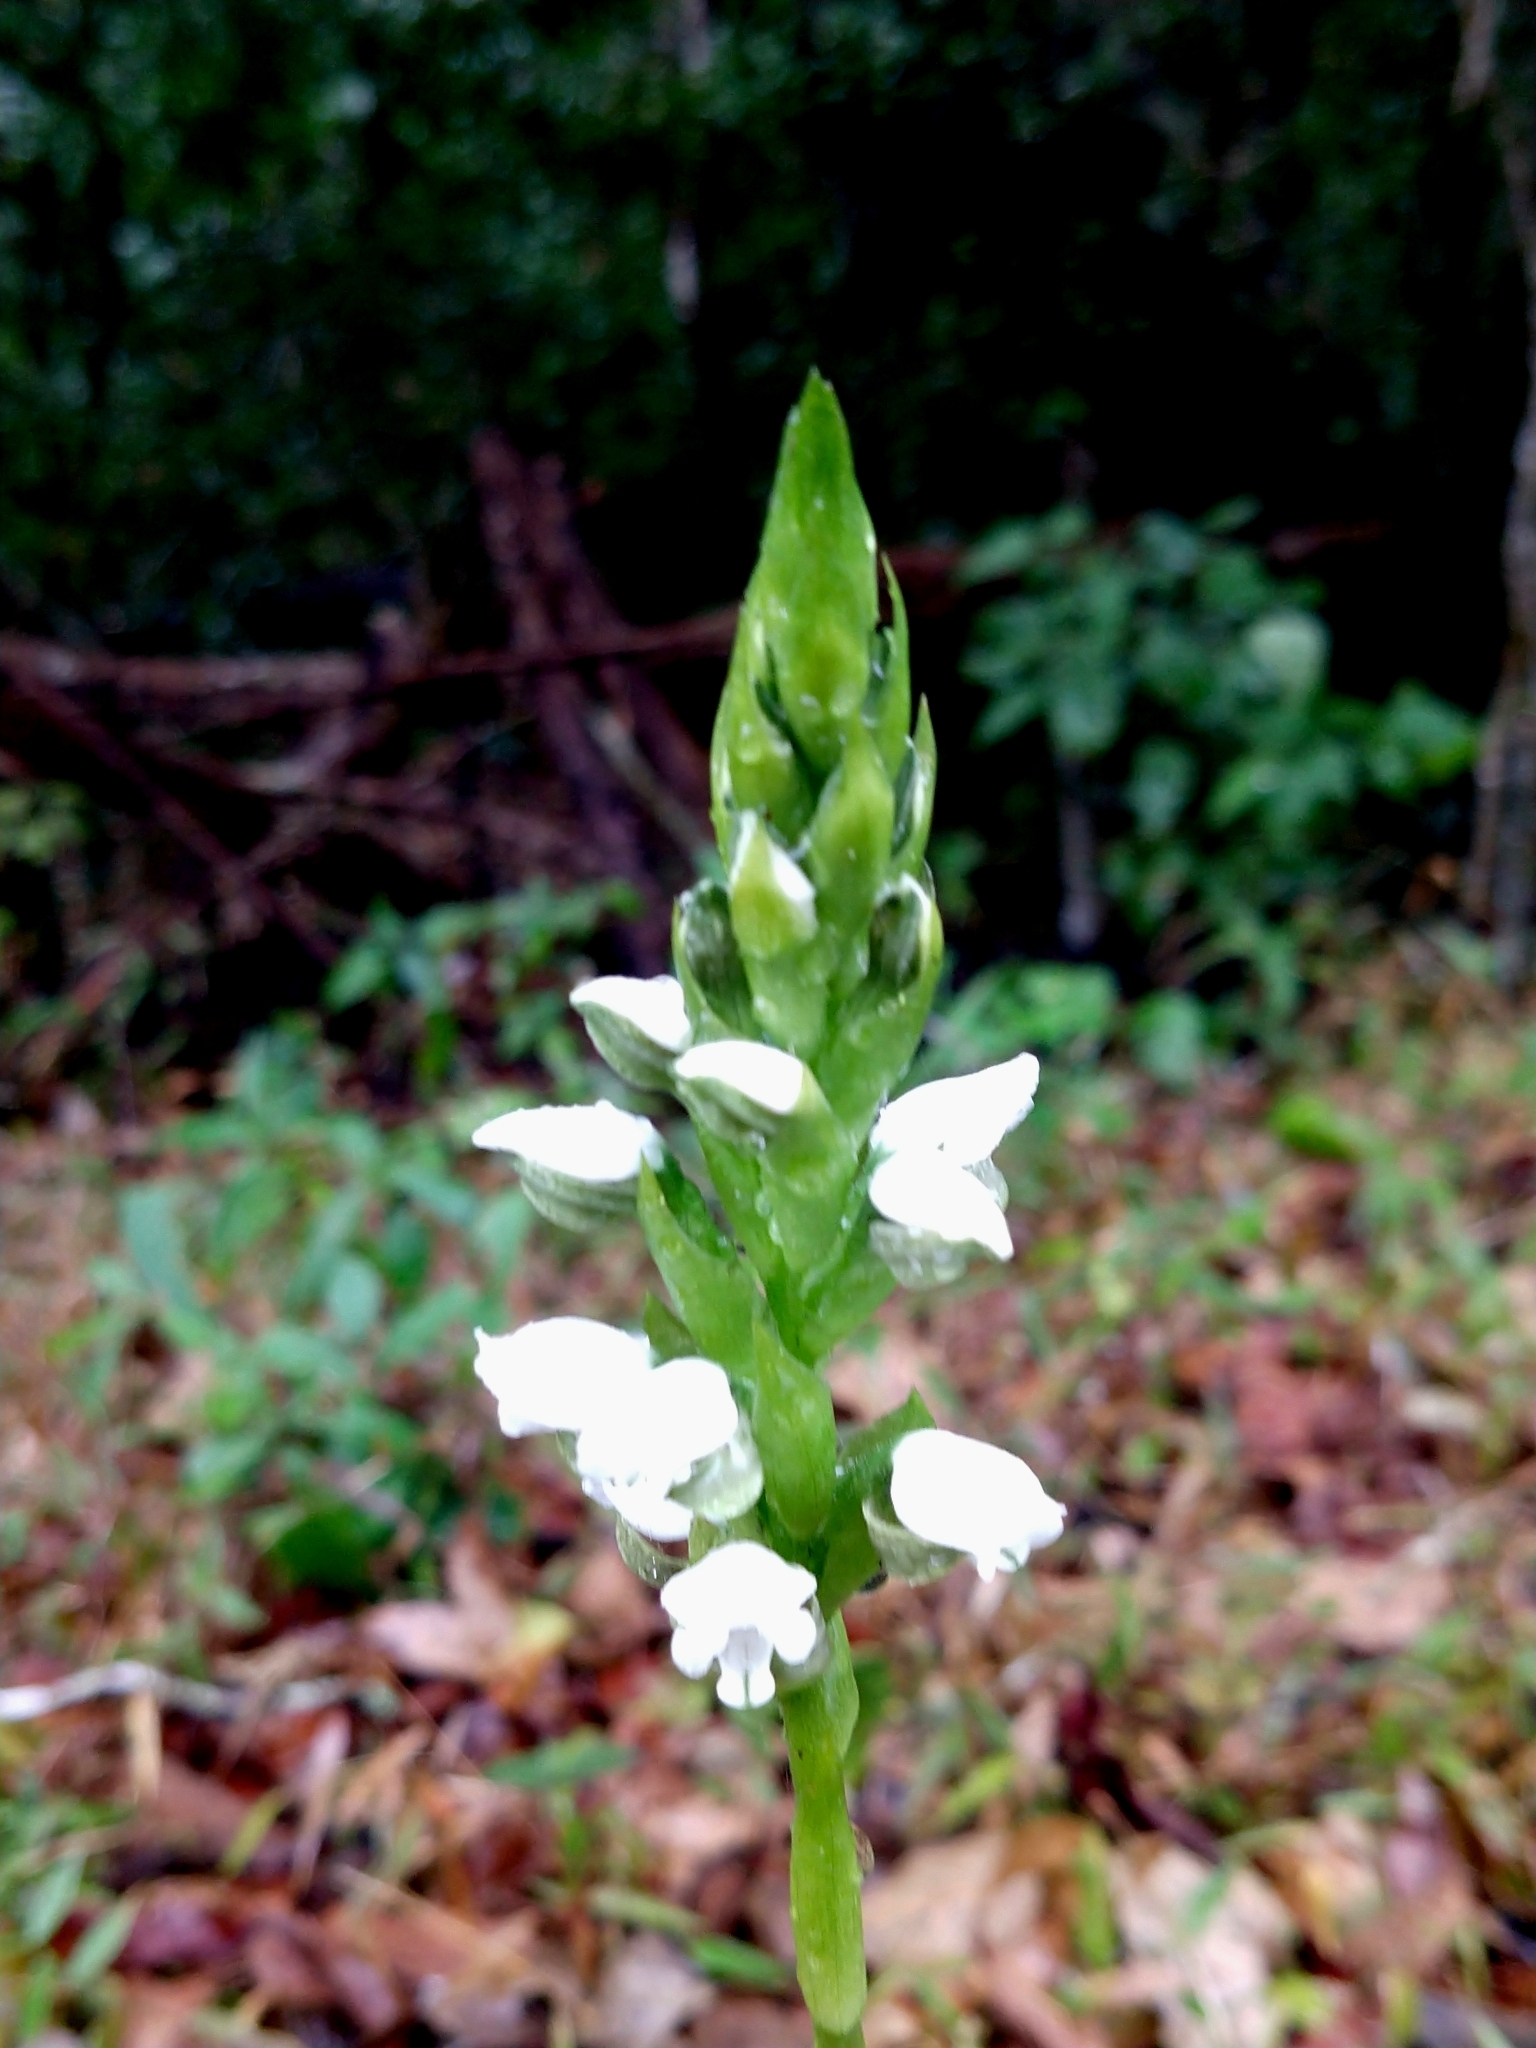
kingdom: Plantae
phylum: Tracheophyta
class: Liliopsida
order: Asparagales
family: Orchidaceae
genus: Aulosepalum
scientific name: Aulosepalum hemichrea
